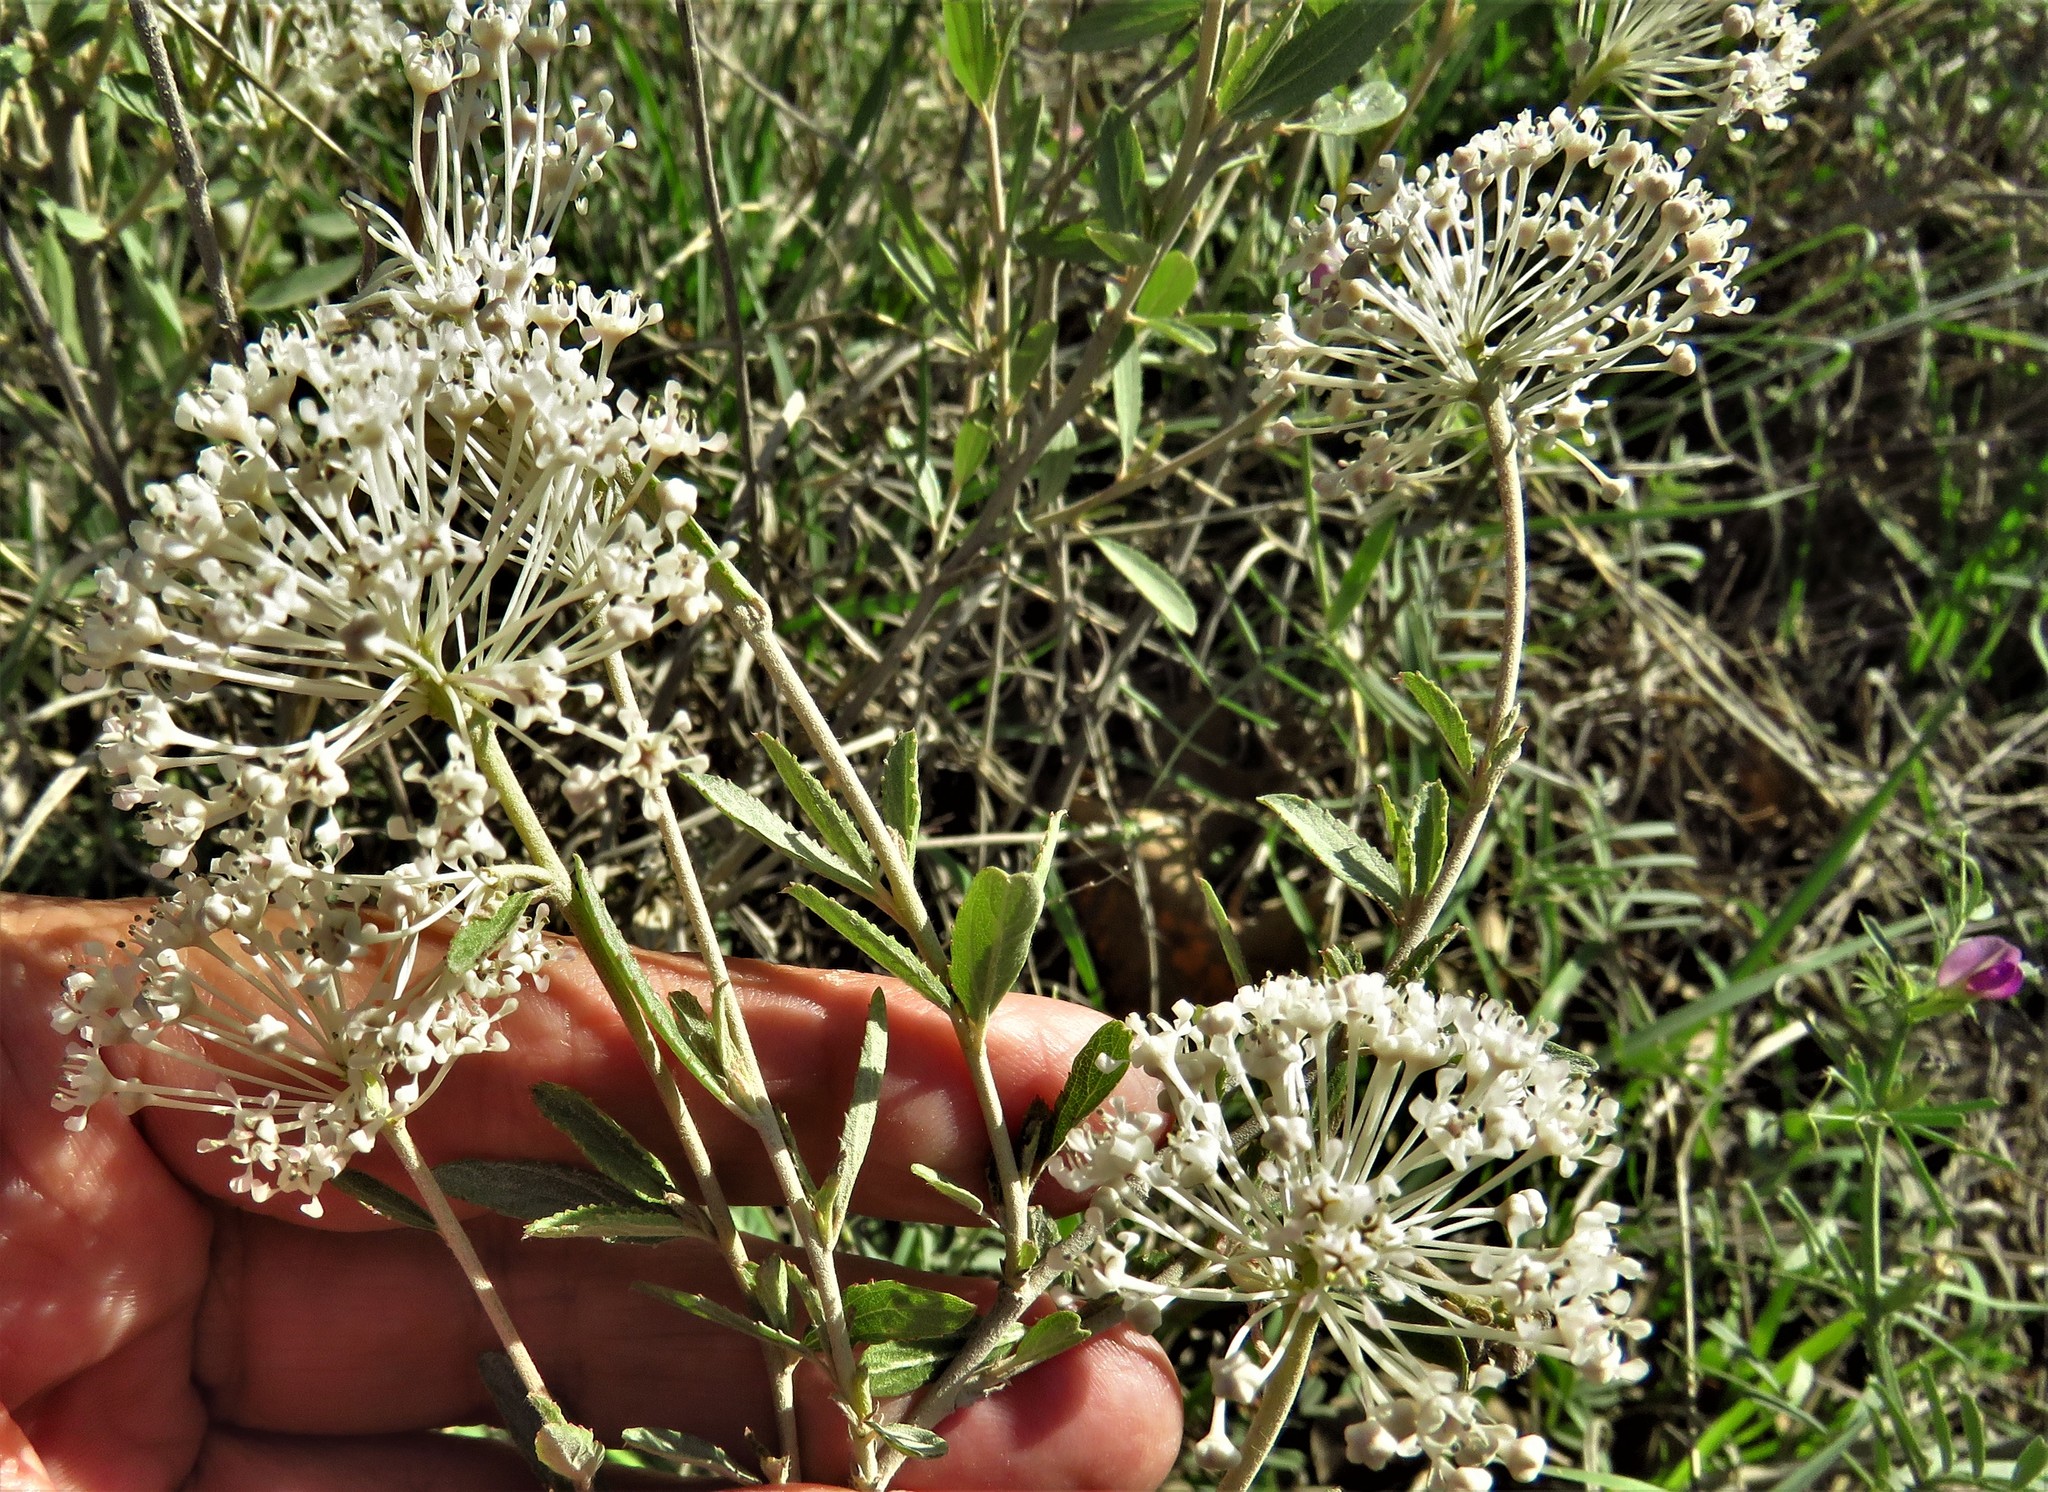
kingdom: Plantae
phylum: Tracheophyta
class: Magnoliopsida
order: Rosales
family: Rhamnaceae
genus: Ceanothus
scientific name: Ceanothus herbaceus
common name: Inland ceanothus
